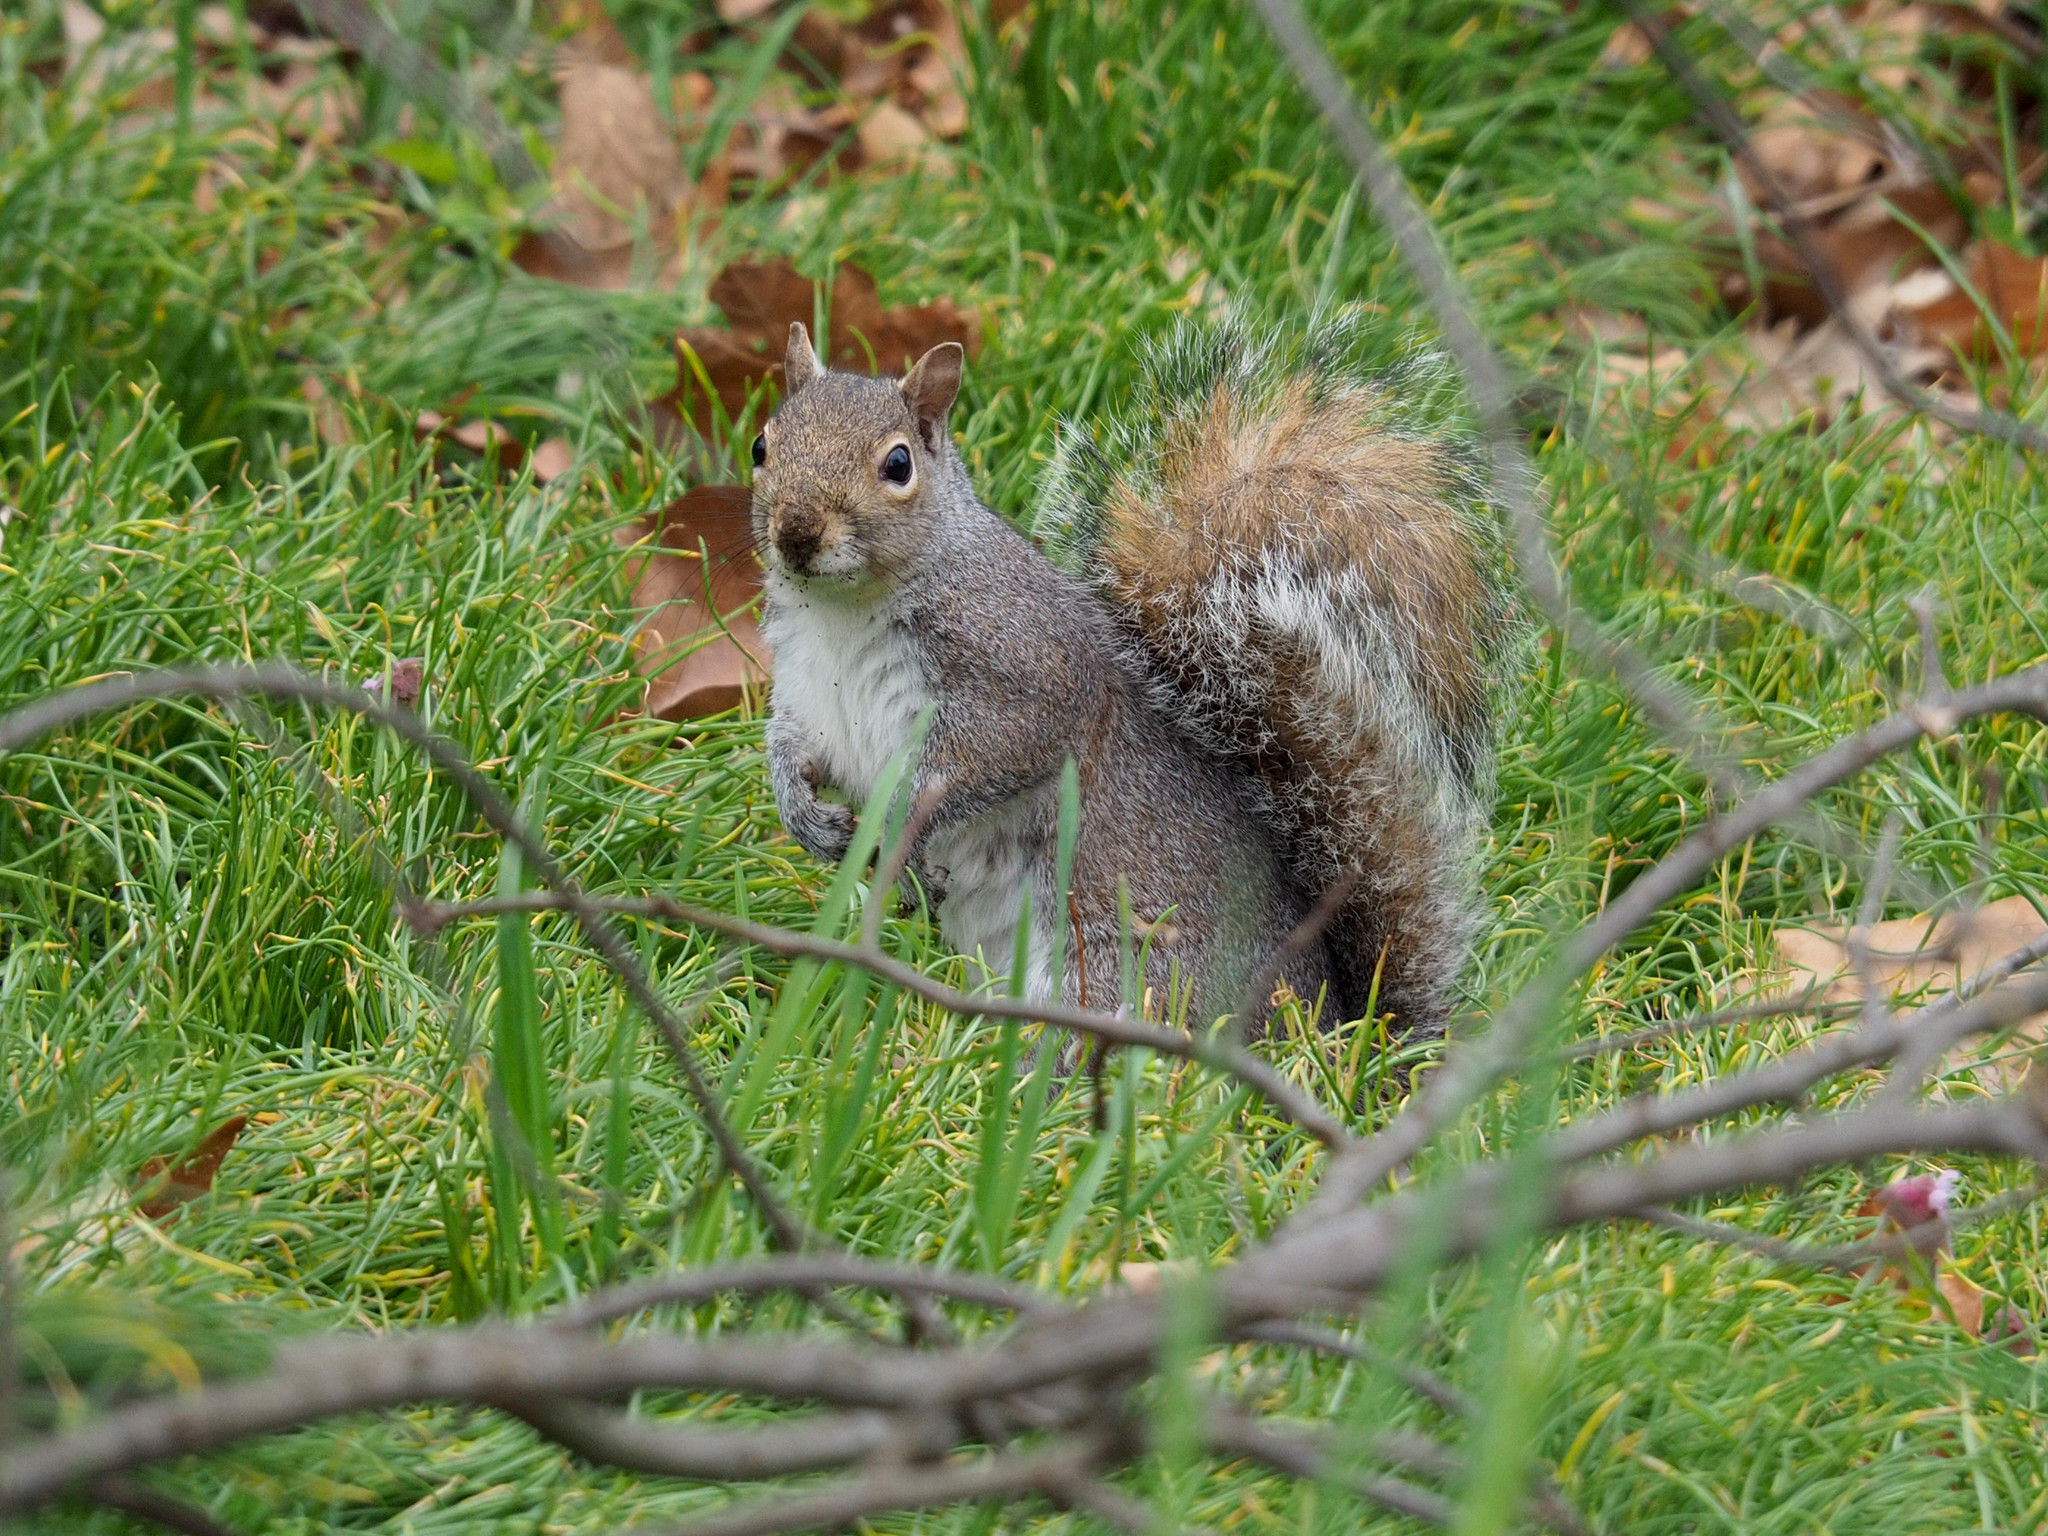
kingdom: Animalia
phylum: Chordata
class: Mammalia
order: Rodentia
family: Sciuridae
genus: Sciurus
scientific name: Sciurus carolinensis
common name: Eastern gray squirrel
